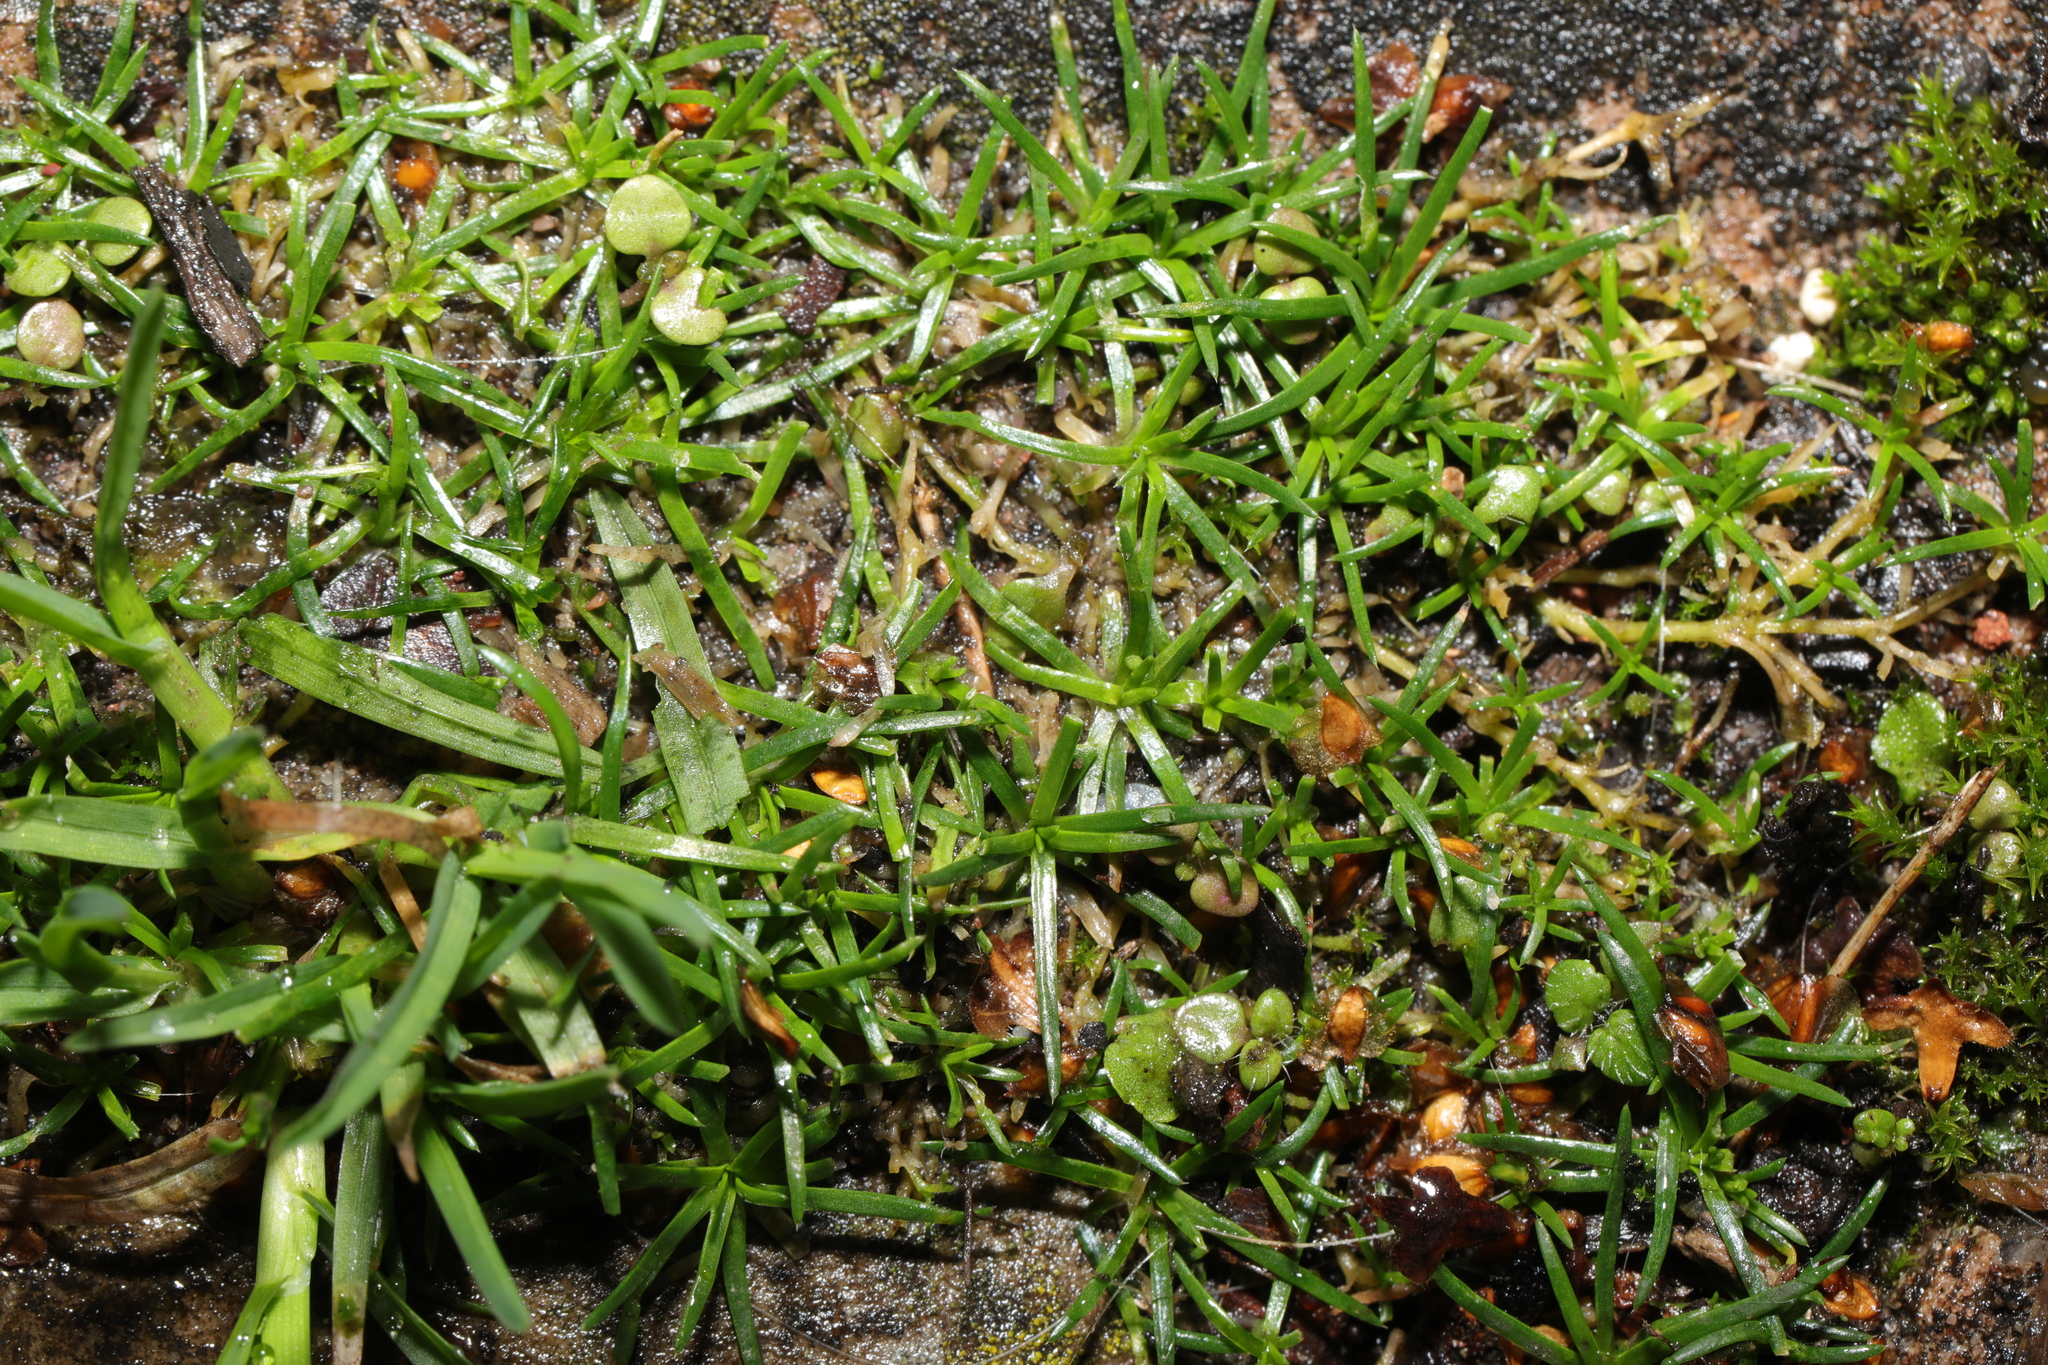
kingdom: Plantae
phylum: Tracheophyta
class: Magnoliopsida
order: Caryophyllales
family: Caryophyllaceae
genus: Sagina
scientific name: Sagina procumbens
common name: Procumbent pearlwort
